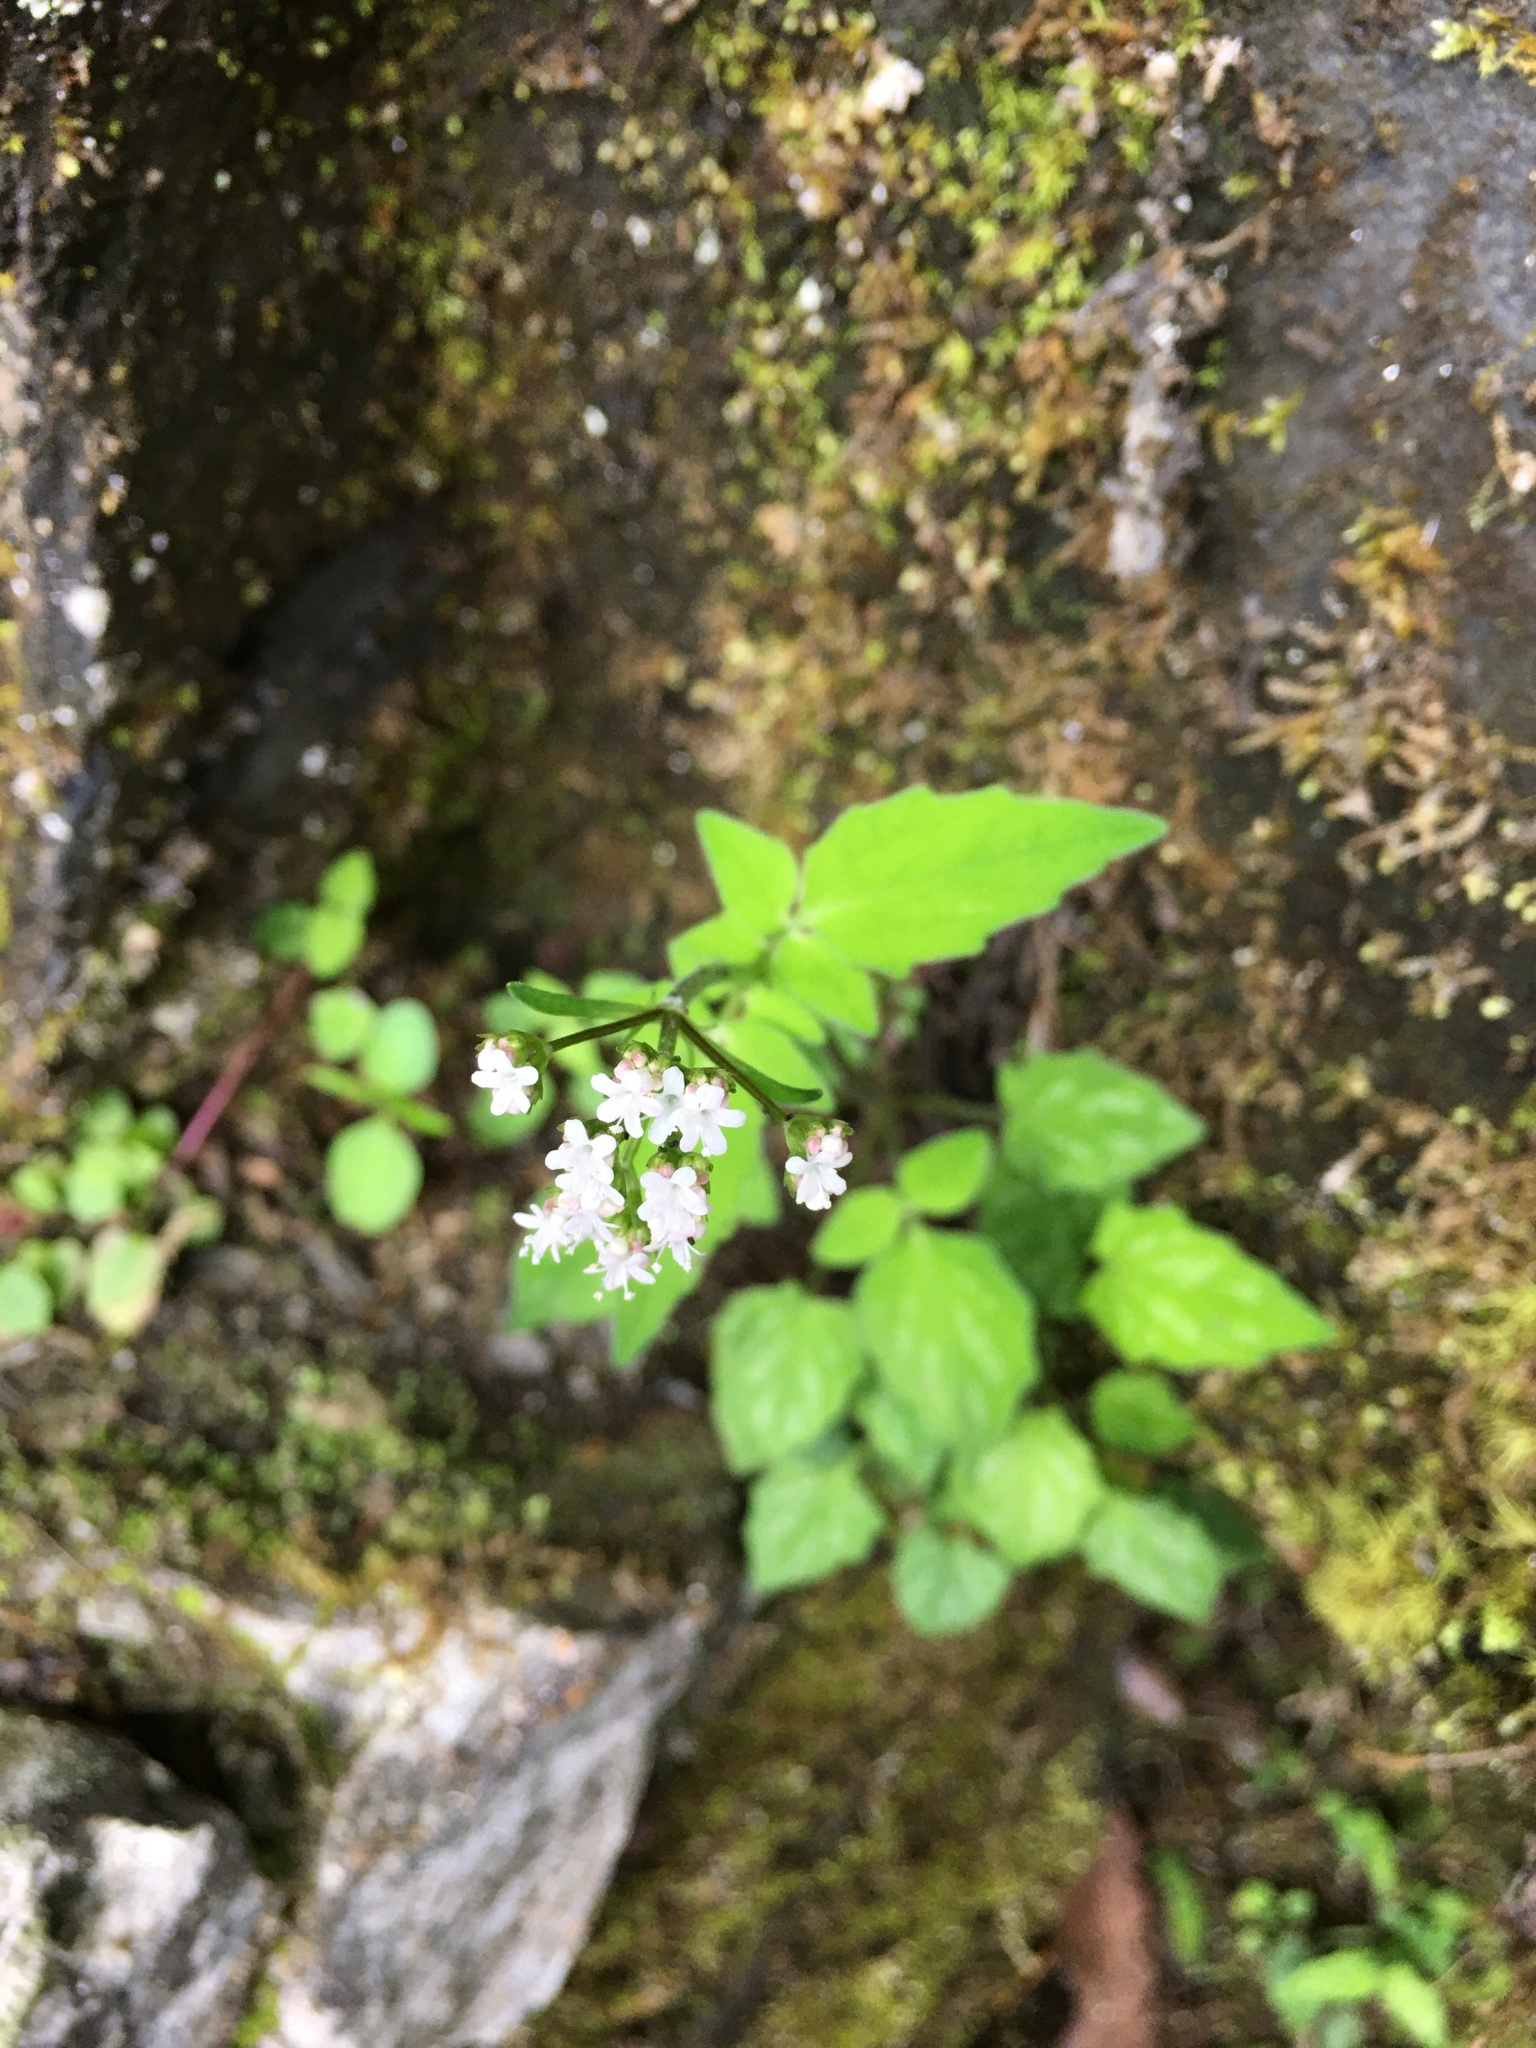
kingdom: Plantae
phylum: Tracheophyta
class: Magnoliopsida
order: Dipsacales
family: Caprifoliaceae
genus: Valeriana
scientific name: Valeriana flaccidissima
